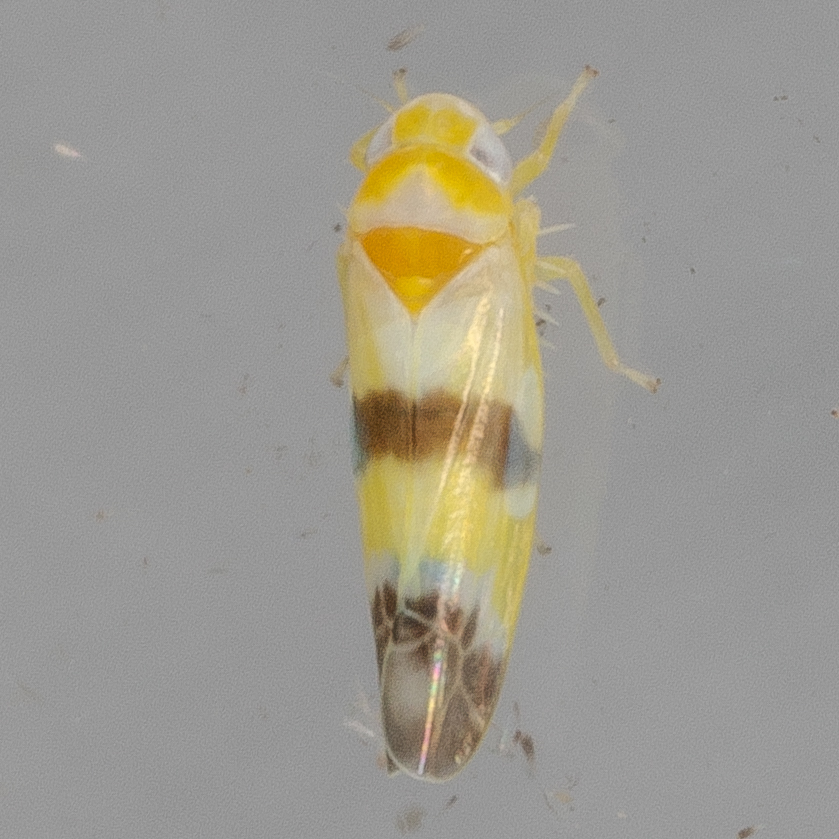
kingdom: Animalia
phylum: Arthropoda
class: Insecta
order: Hemiptera
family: Cicadellidae
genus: Empoa
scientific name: Empoa venusta
